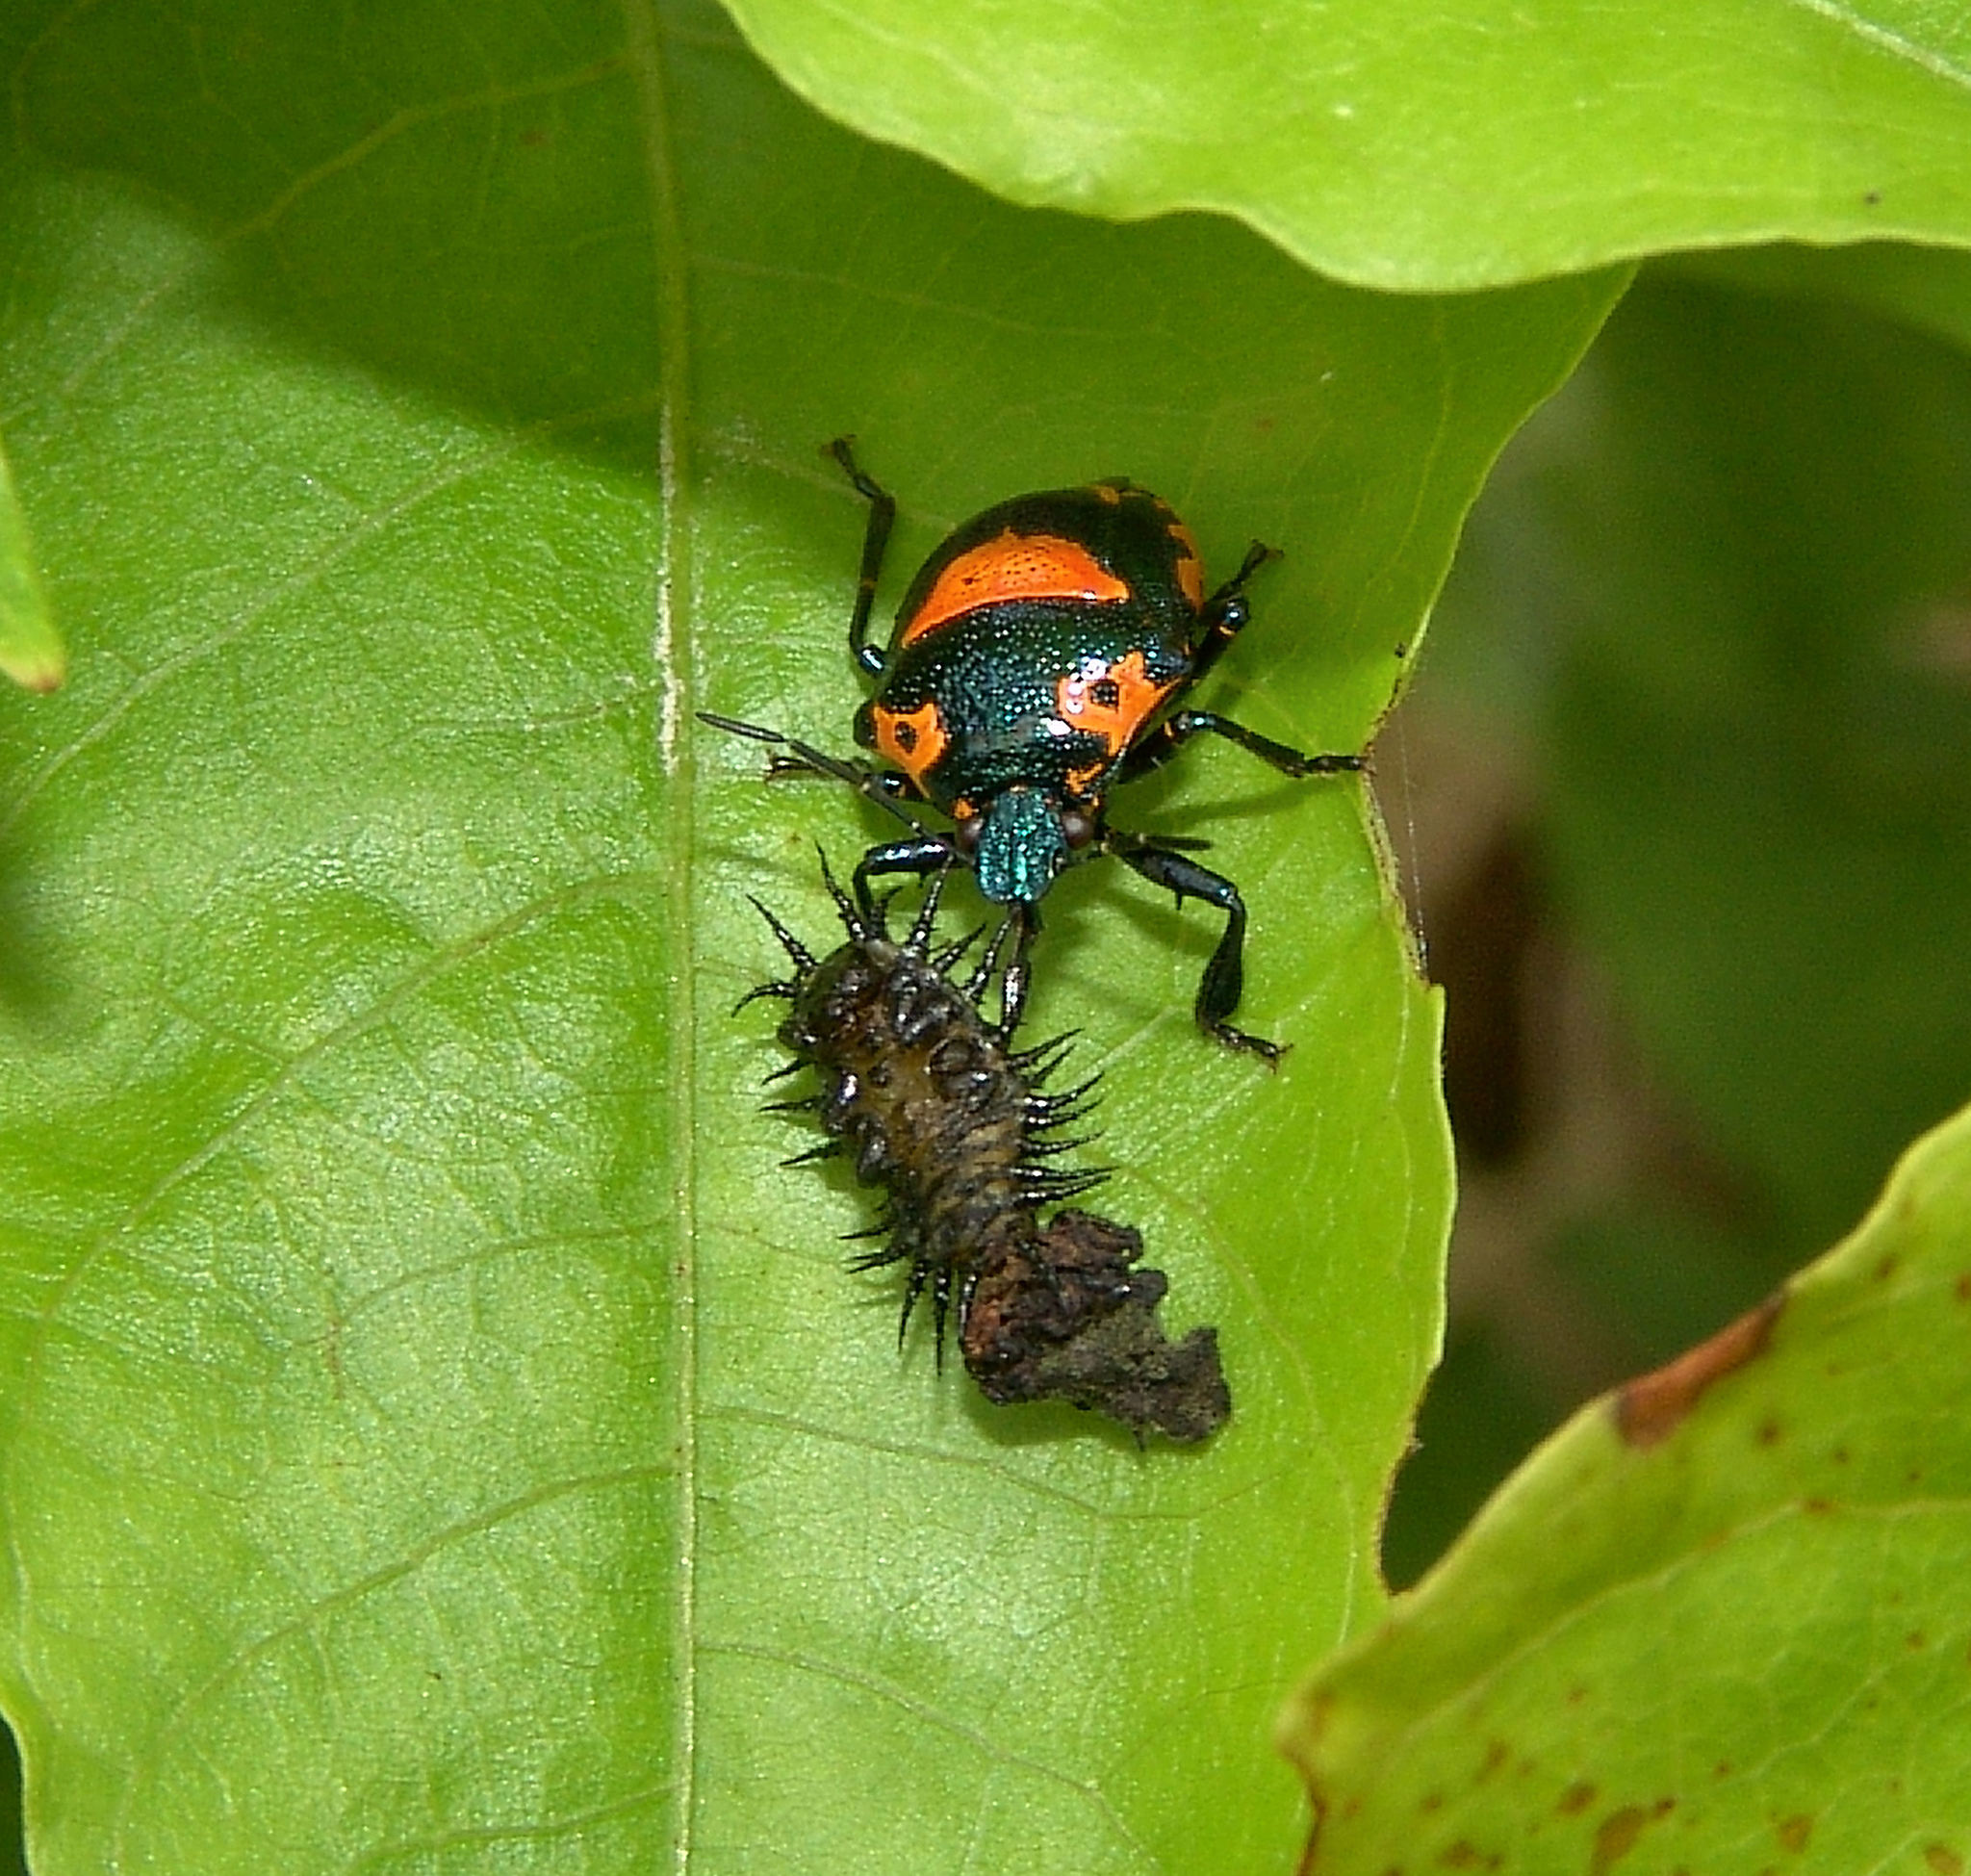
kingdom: Animalia
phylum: Arthropoda
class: Insecta
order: Hemiptera
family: Pentatomidae
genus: Stiretrus
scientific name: Stiretrus anchorago
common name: Anchor stink bug
